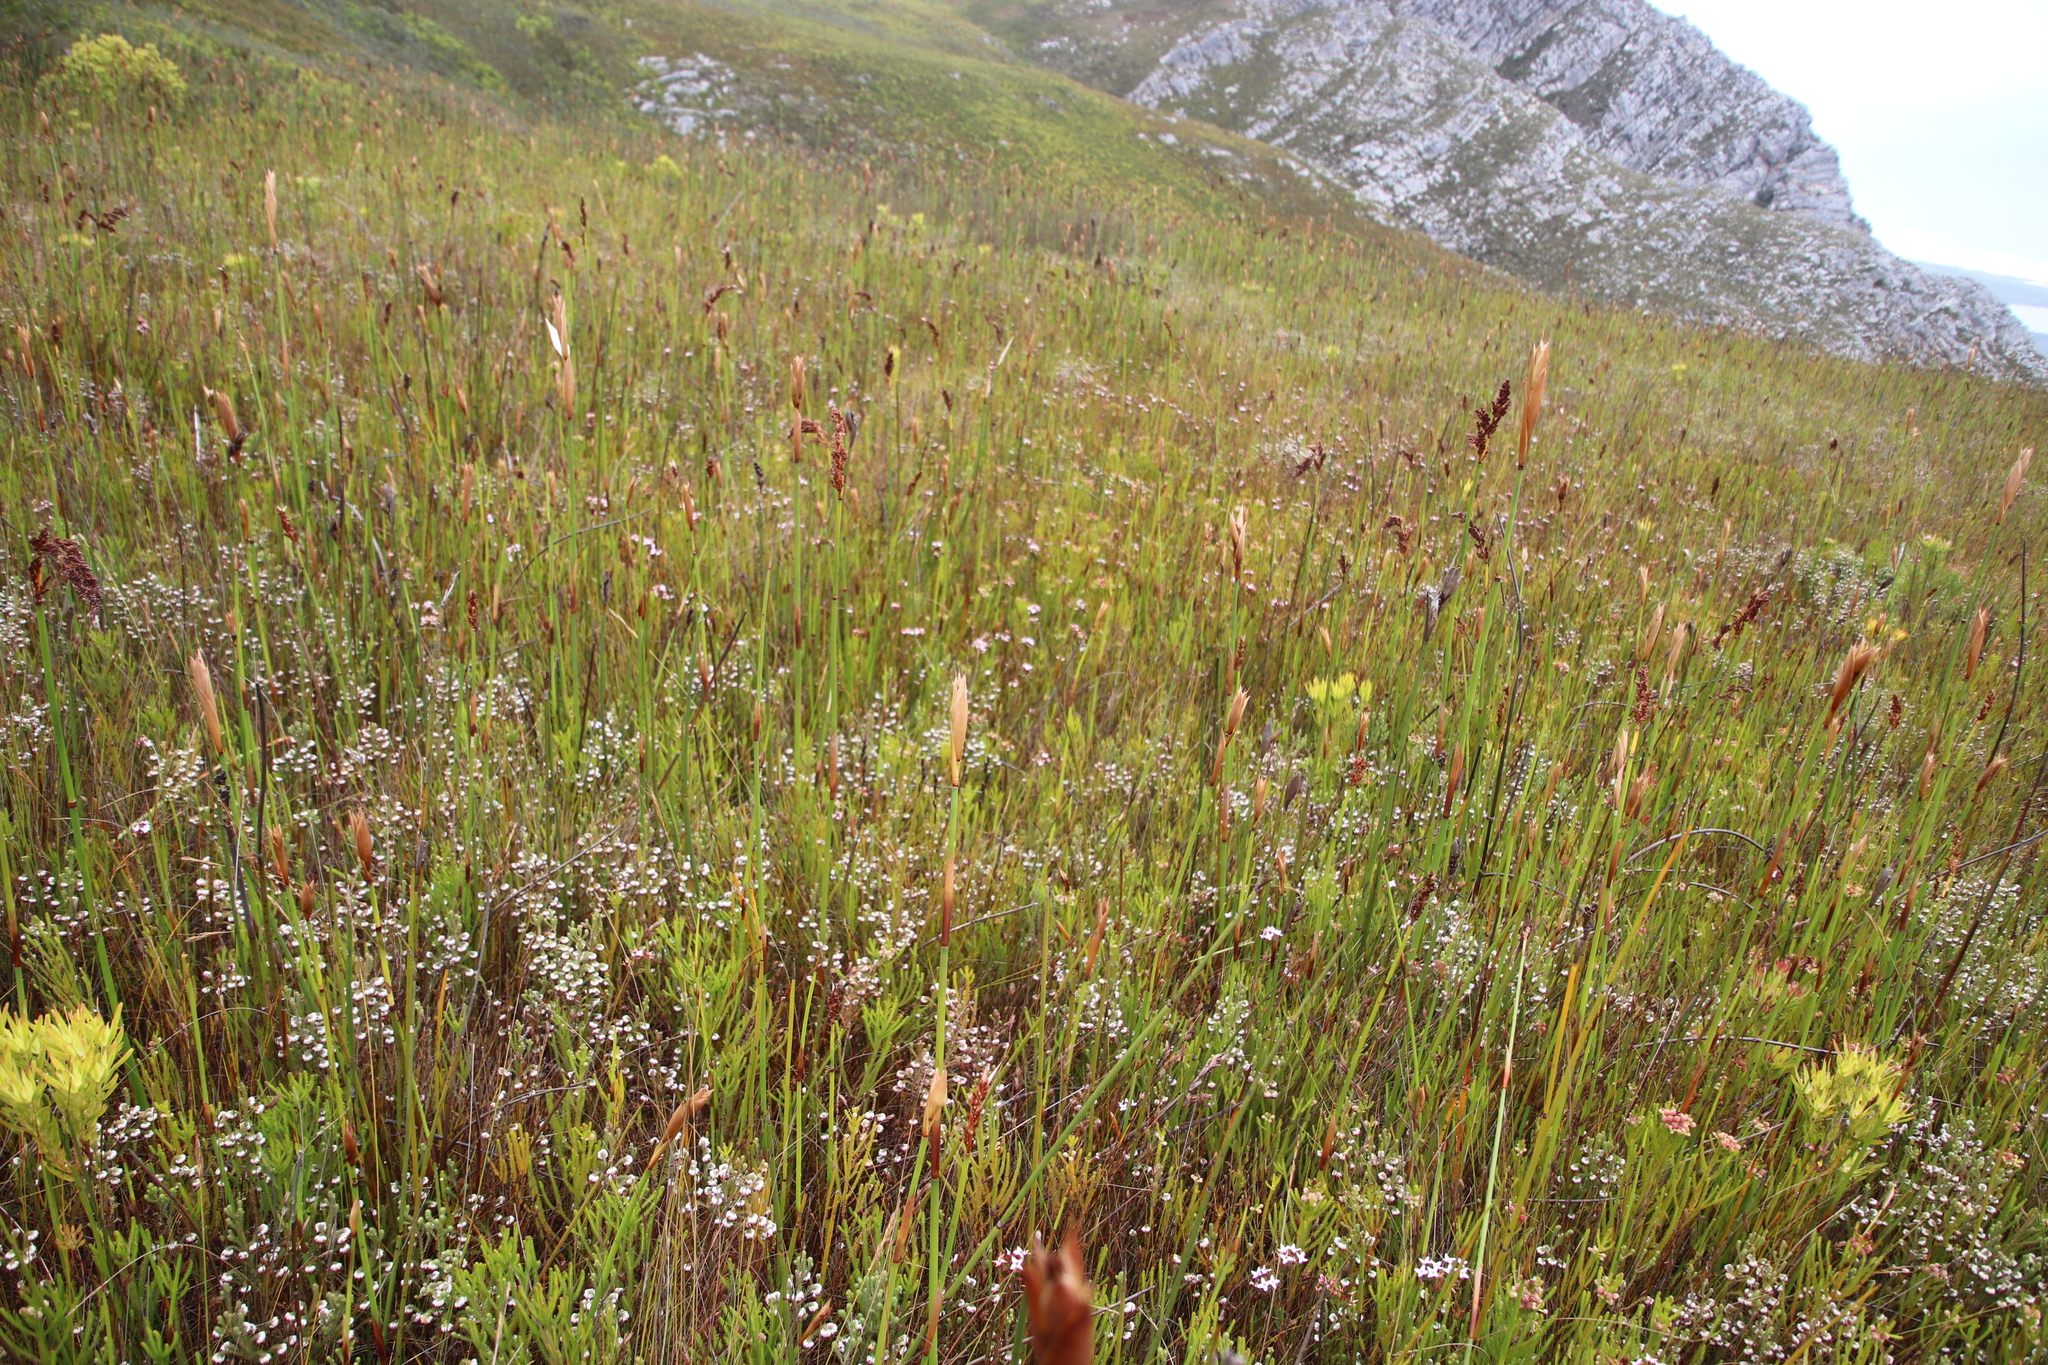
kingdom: Plantae
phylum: Tracheophyta
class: Magnoliopsida
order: Ericales
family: Ericaceae
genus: Erica
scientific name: Erica fastigiata
